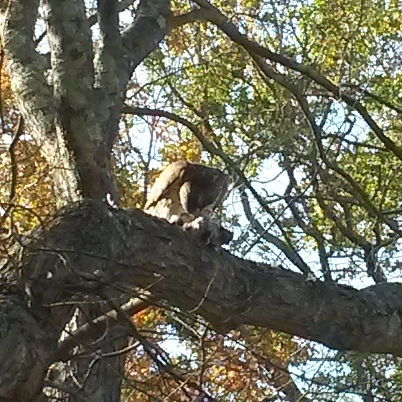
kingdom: Animalia
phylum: Chordata
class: Aves
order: Accipitriformes
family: Accipitridae
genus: Buteo
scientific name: Buteo jamaicensis
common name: Red-tailed hawk
